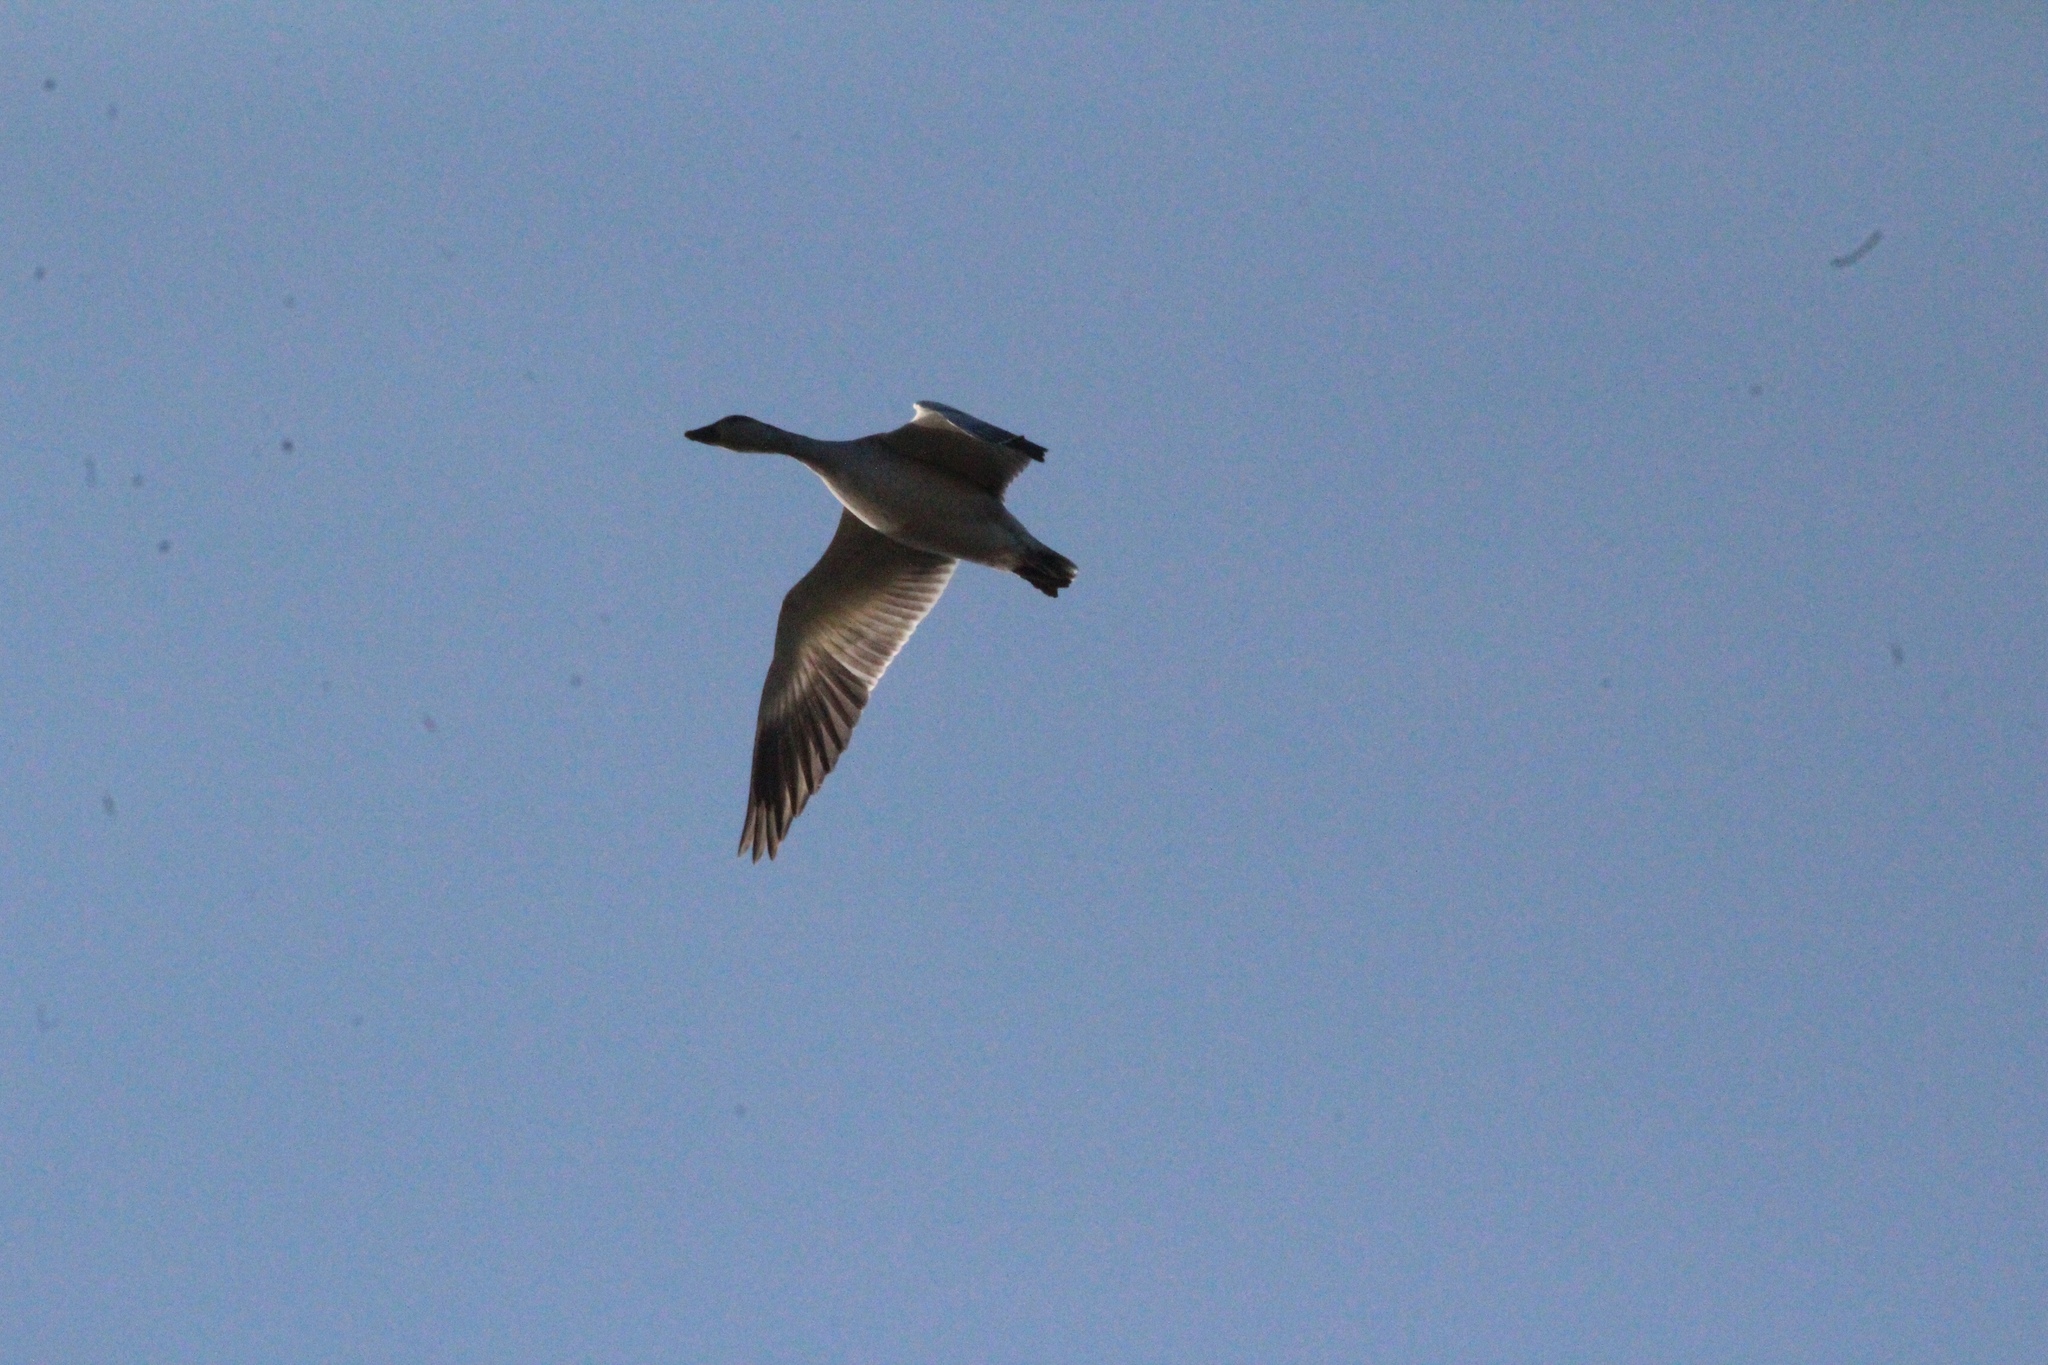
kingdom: Animalia
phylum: Chordata
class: Aves
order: Anseriformes
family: Anatidae
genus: Anser
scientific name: Anser caerulescens
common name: Snow goose
